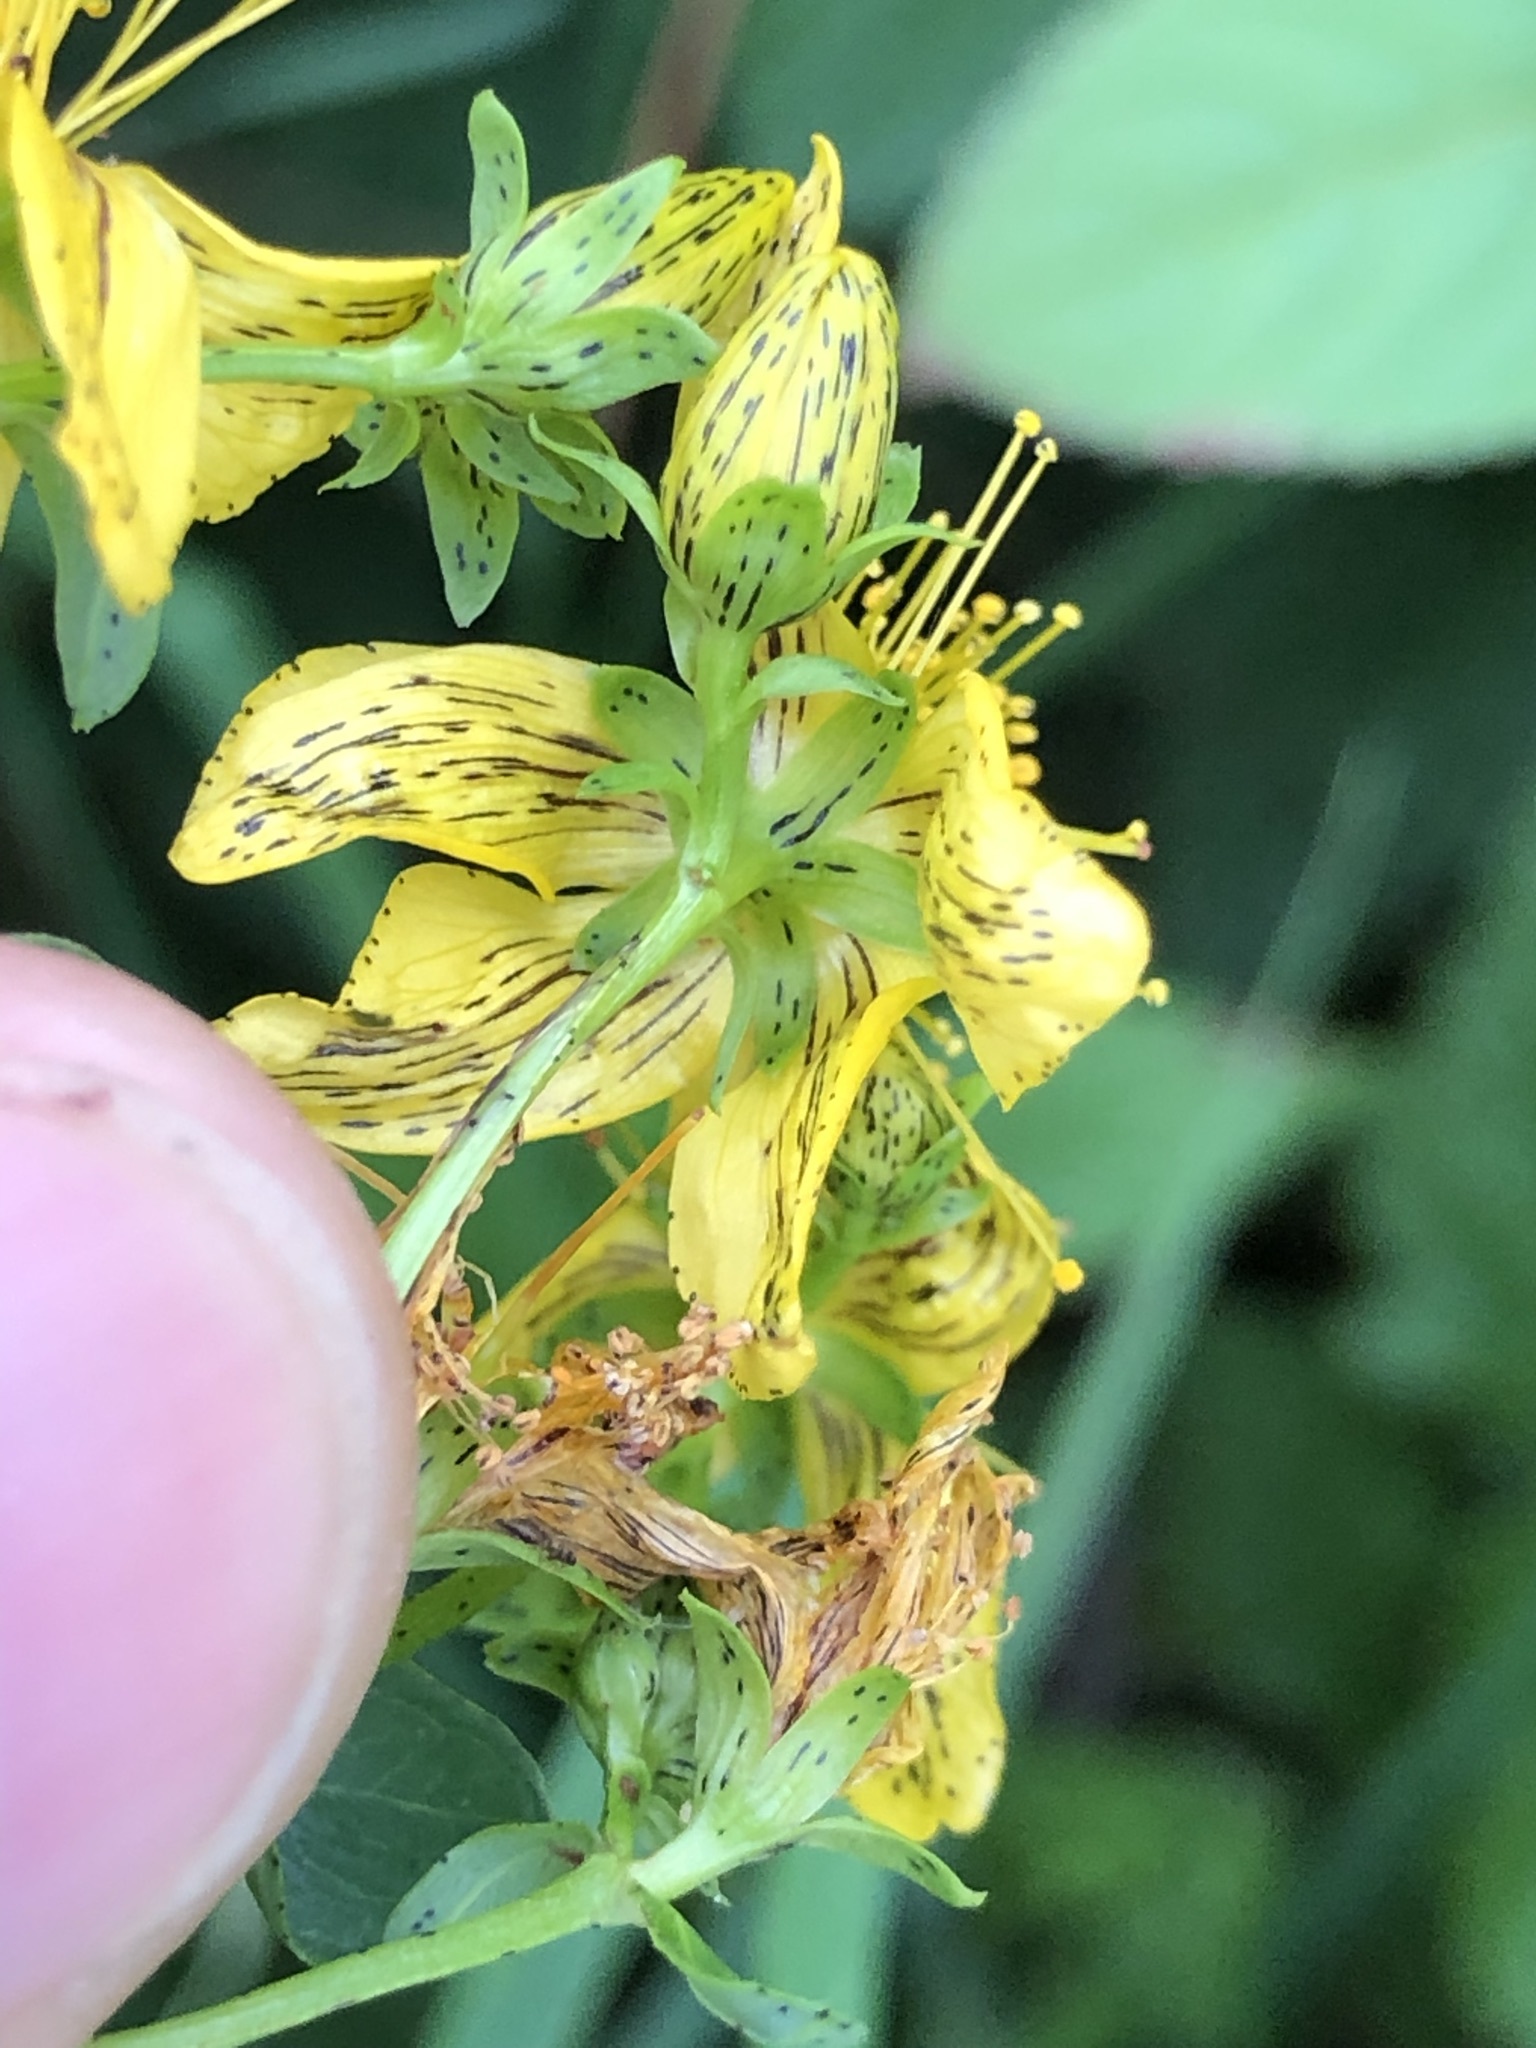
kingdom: Plantae
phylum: Tracheophyta
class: Magnoliopsida
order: Malpighiales
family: Hypericaceae
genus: Hypericum
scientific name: Hypericum maculatum
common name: Imperforate st. john's-wort
